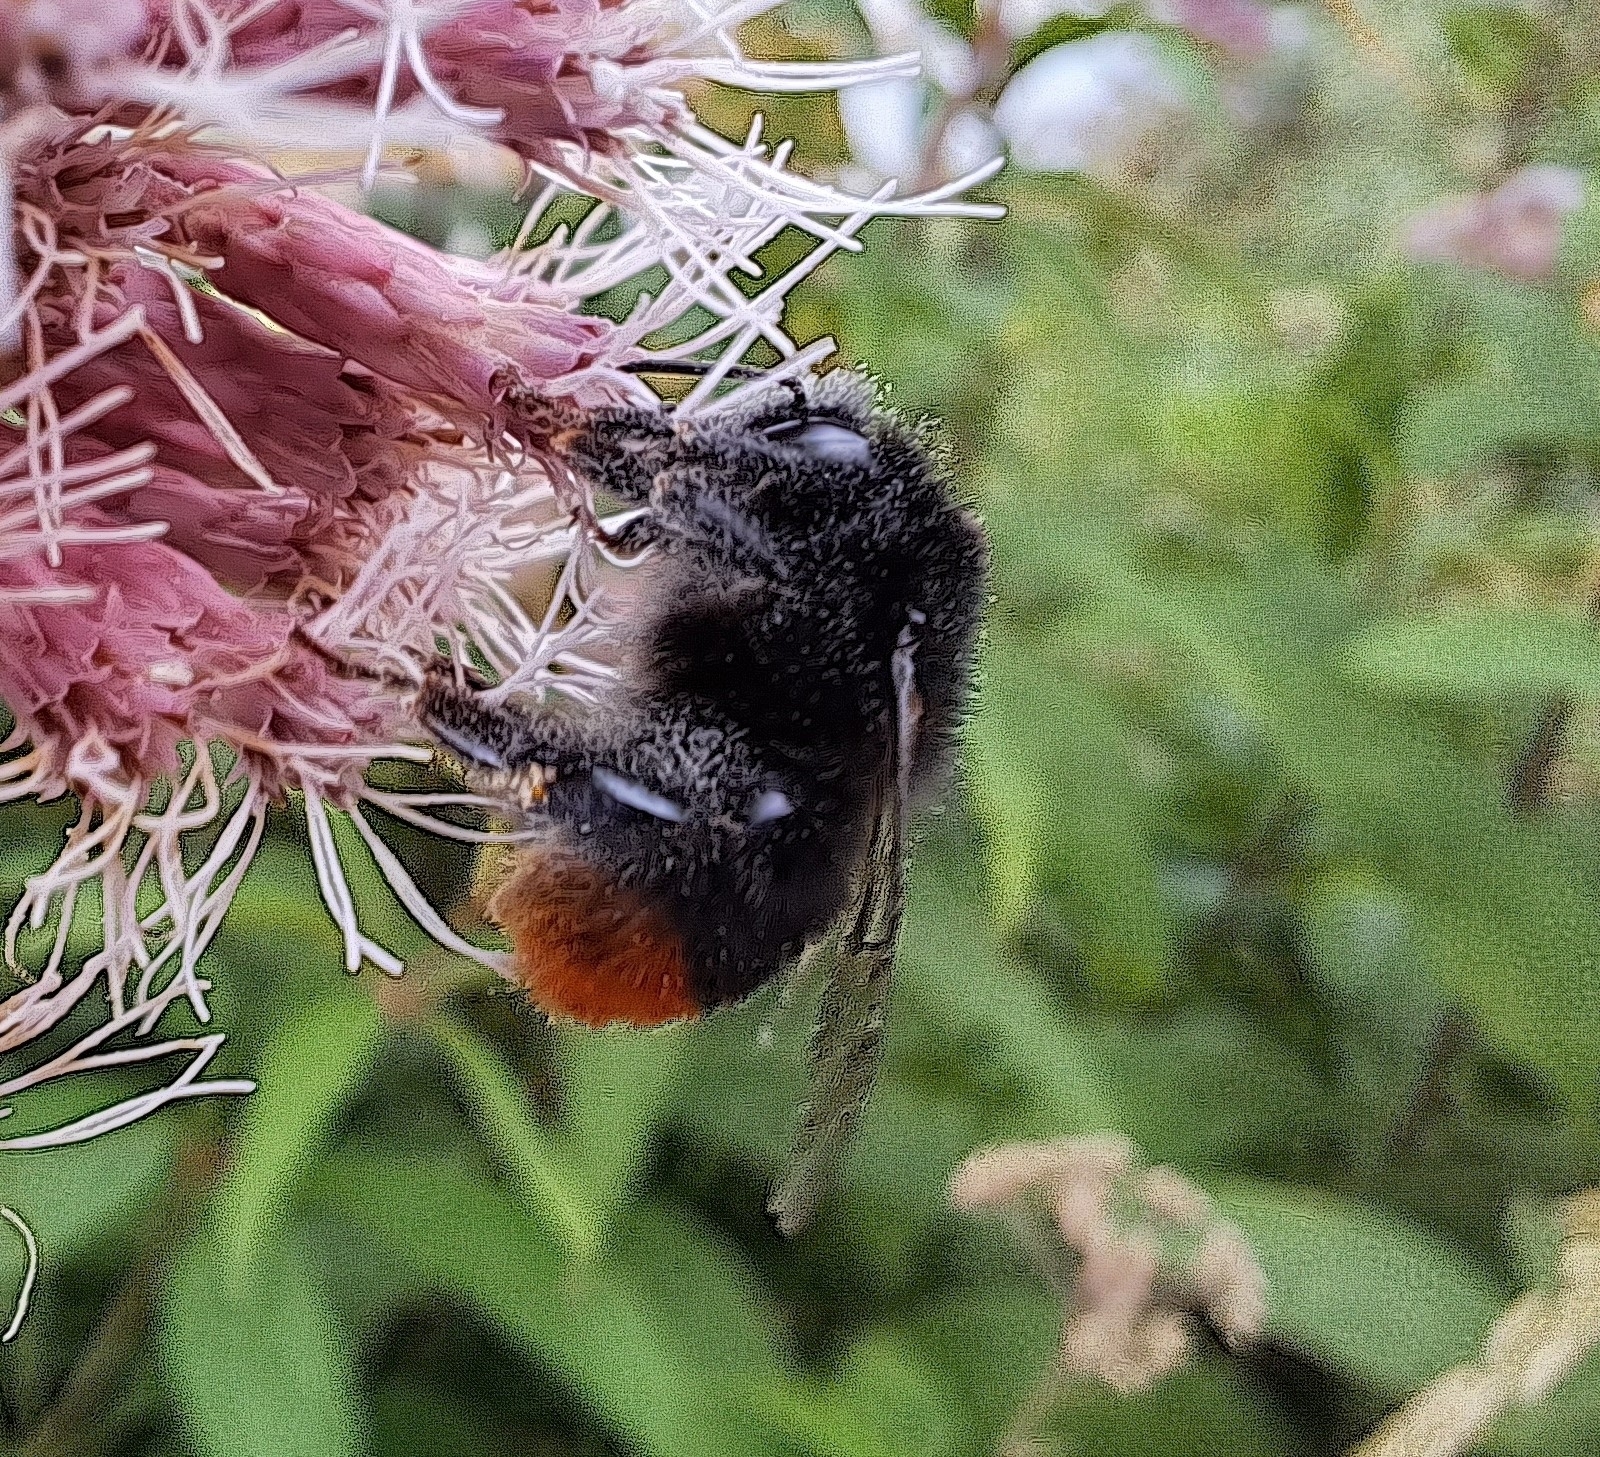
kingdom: Animalia
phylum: Arthropoda
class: Insecta
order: Hymenoptera
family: Apidae
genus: Bombus
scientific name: Bombus lapidarius
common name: Large red-tailed humble-bee
